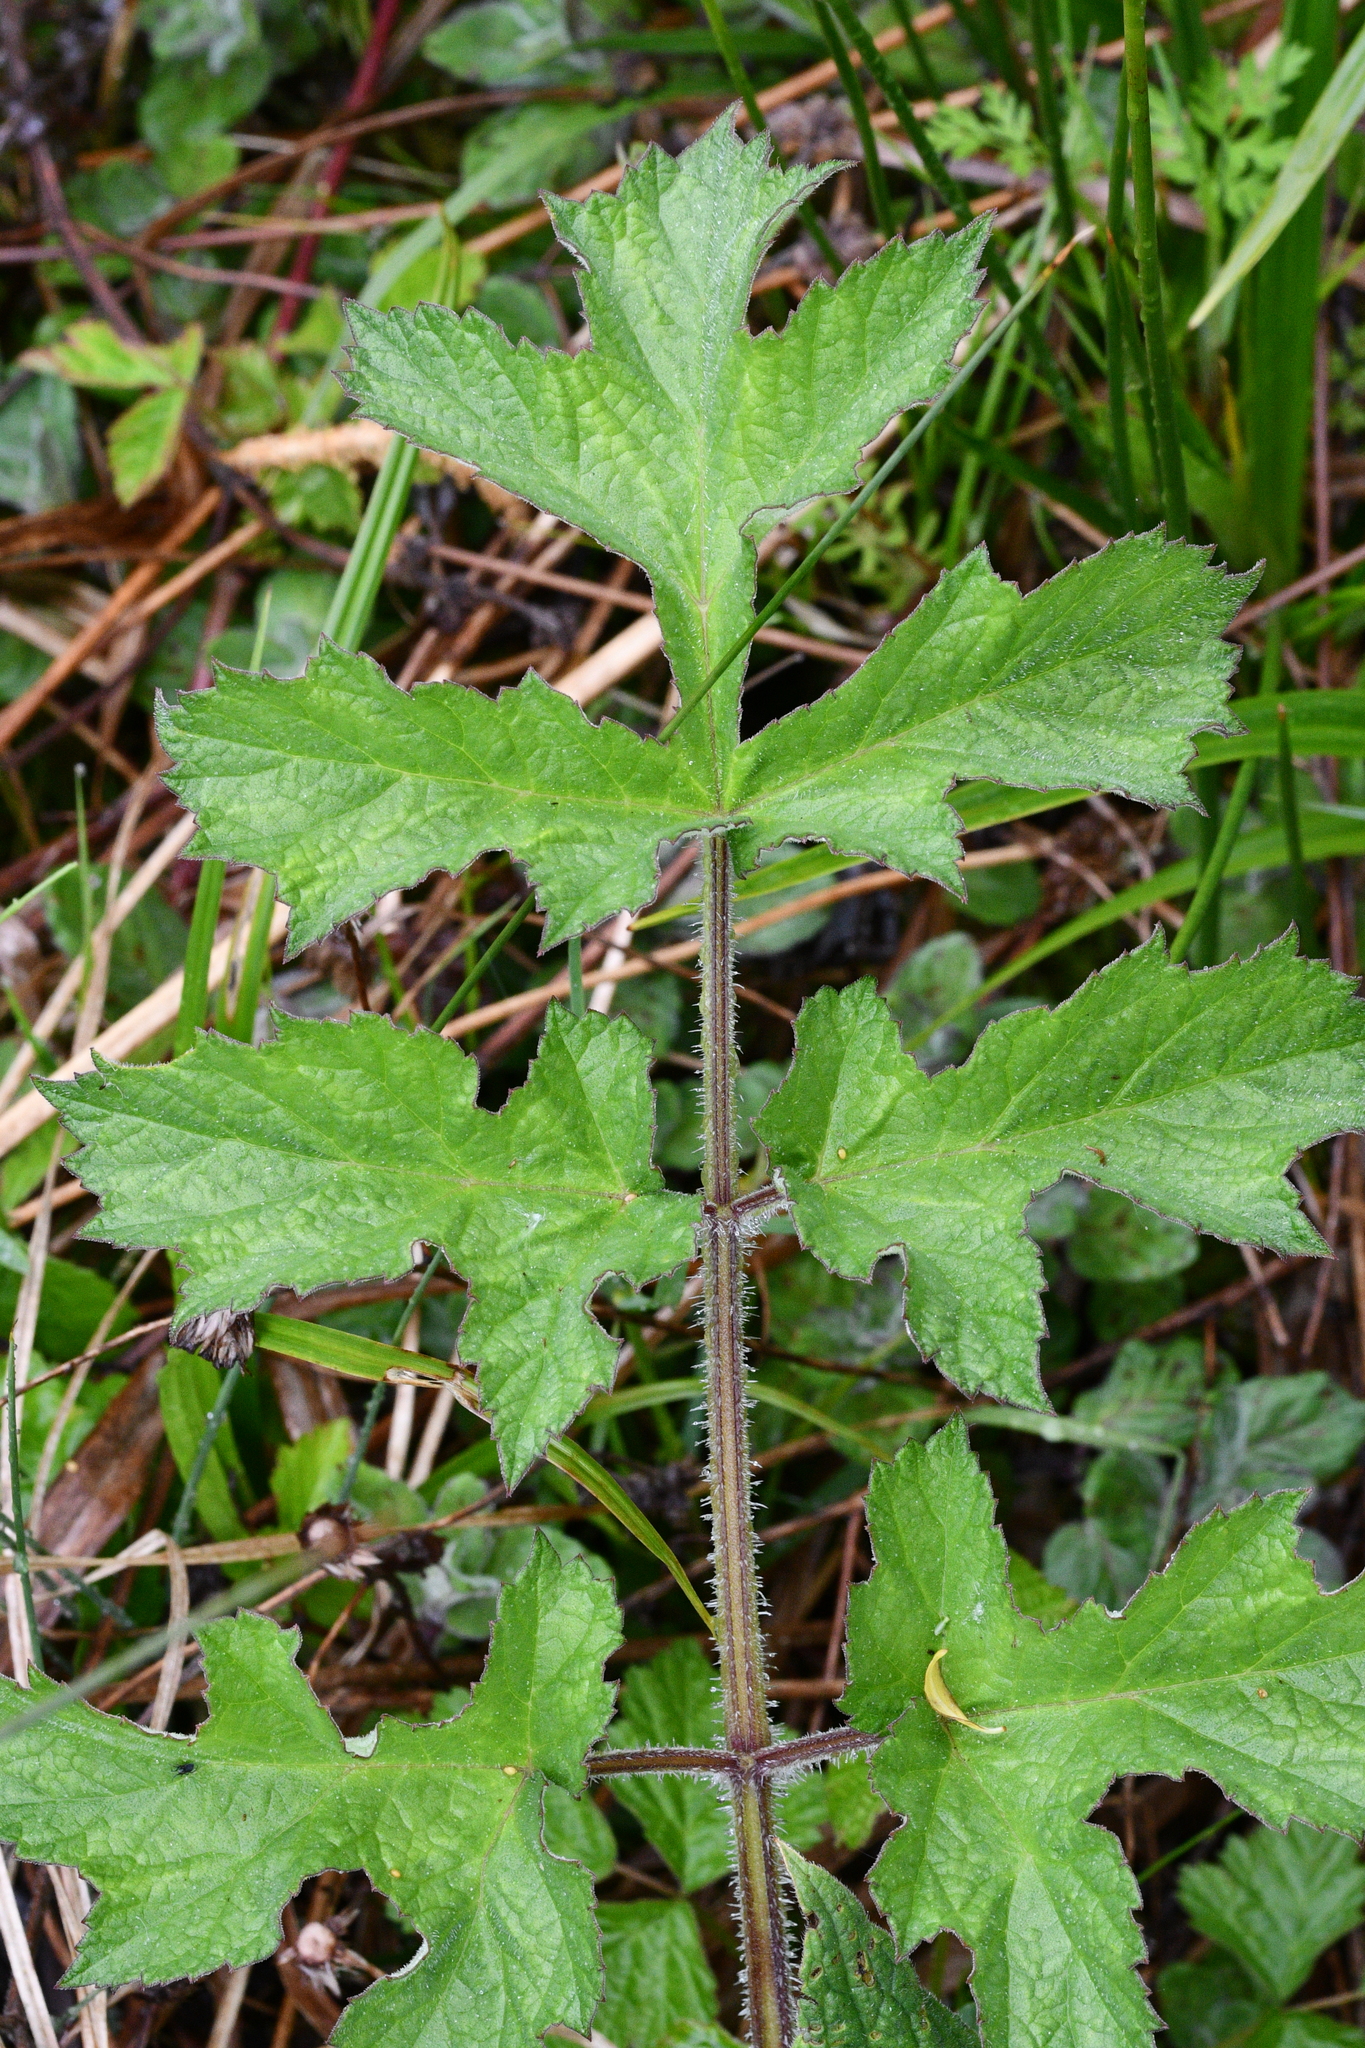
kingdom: Plantae
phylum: Tracheophyta
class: Magnoliopsida
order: Apiales
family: Apiaceae
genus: Heracleum
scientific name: Heracleum sphondylium
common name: Hogweed
